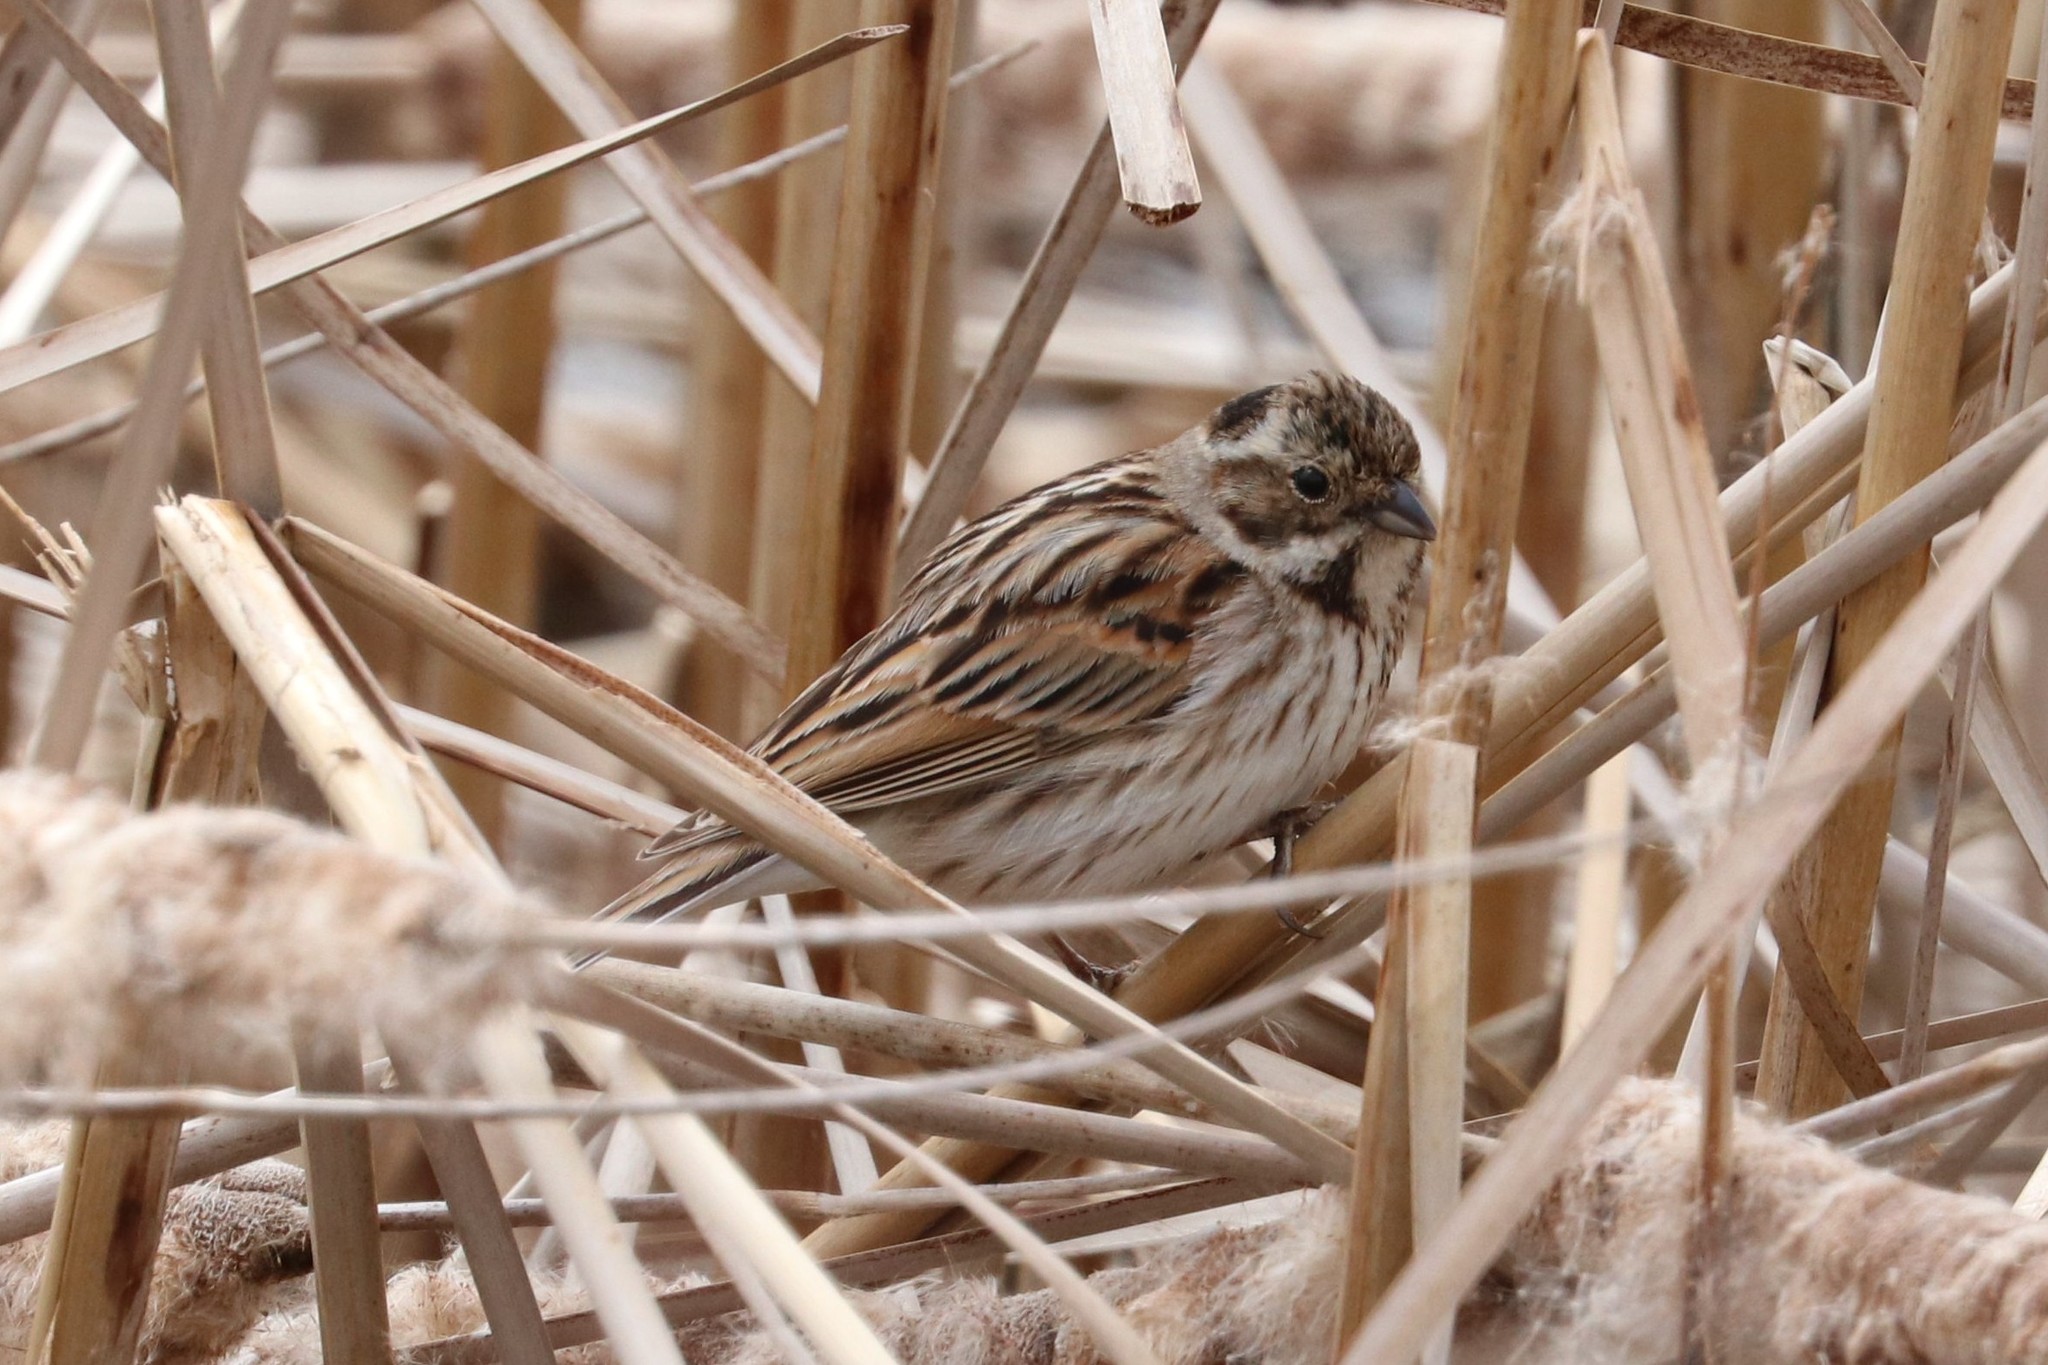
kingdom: Animalia
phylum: Chordata
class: Aves
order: Passeriformes
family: Emberizidae
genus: Emberiza
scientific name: Emberiza schoeniclus
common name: Reed bunting
